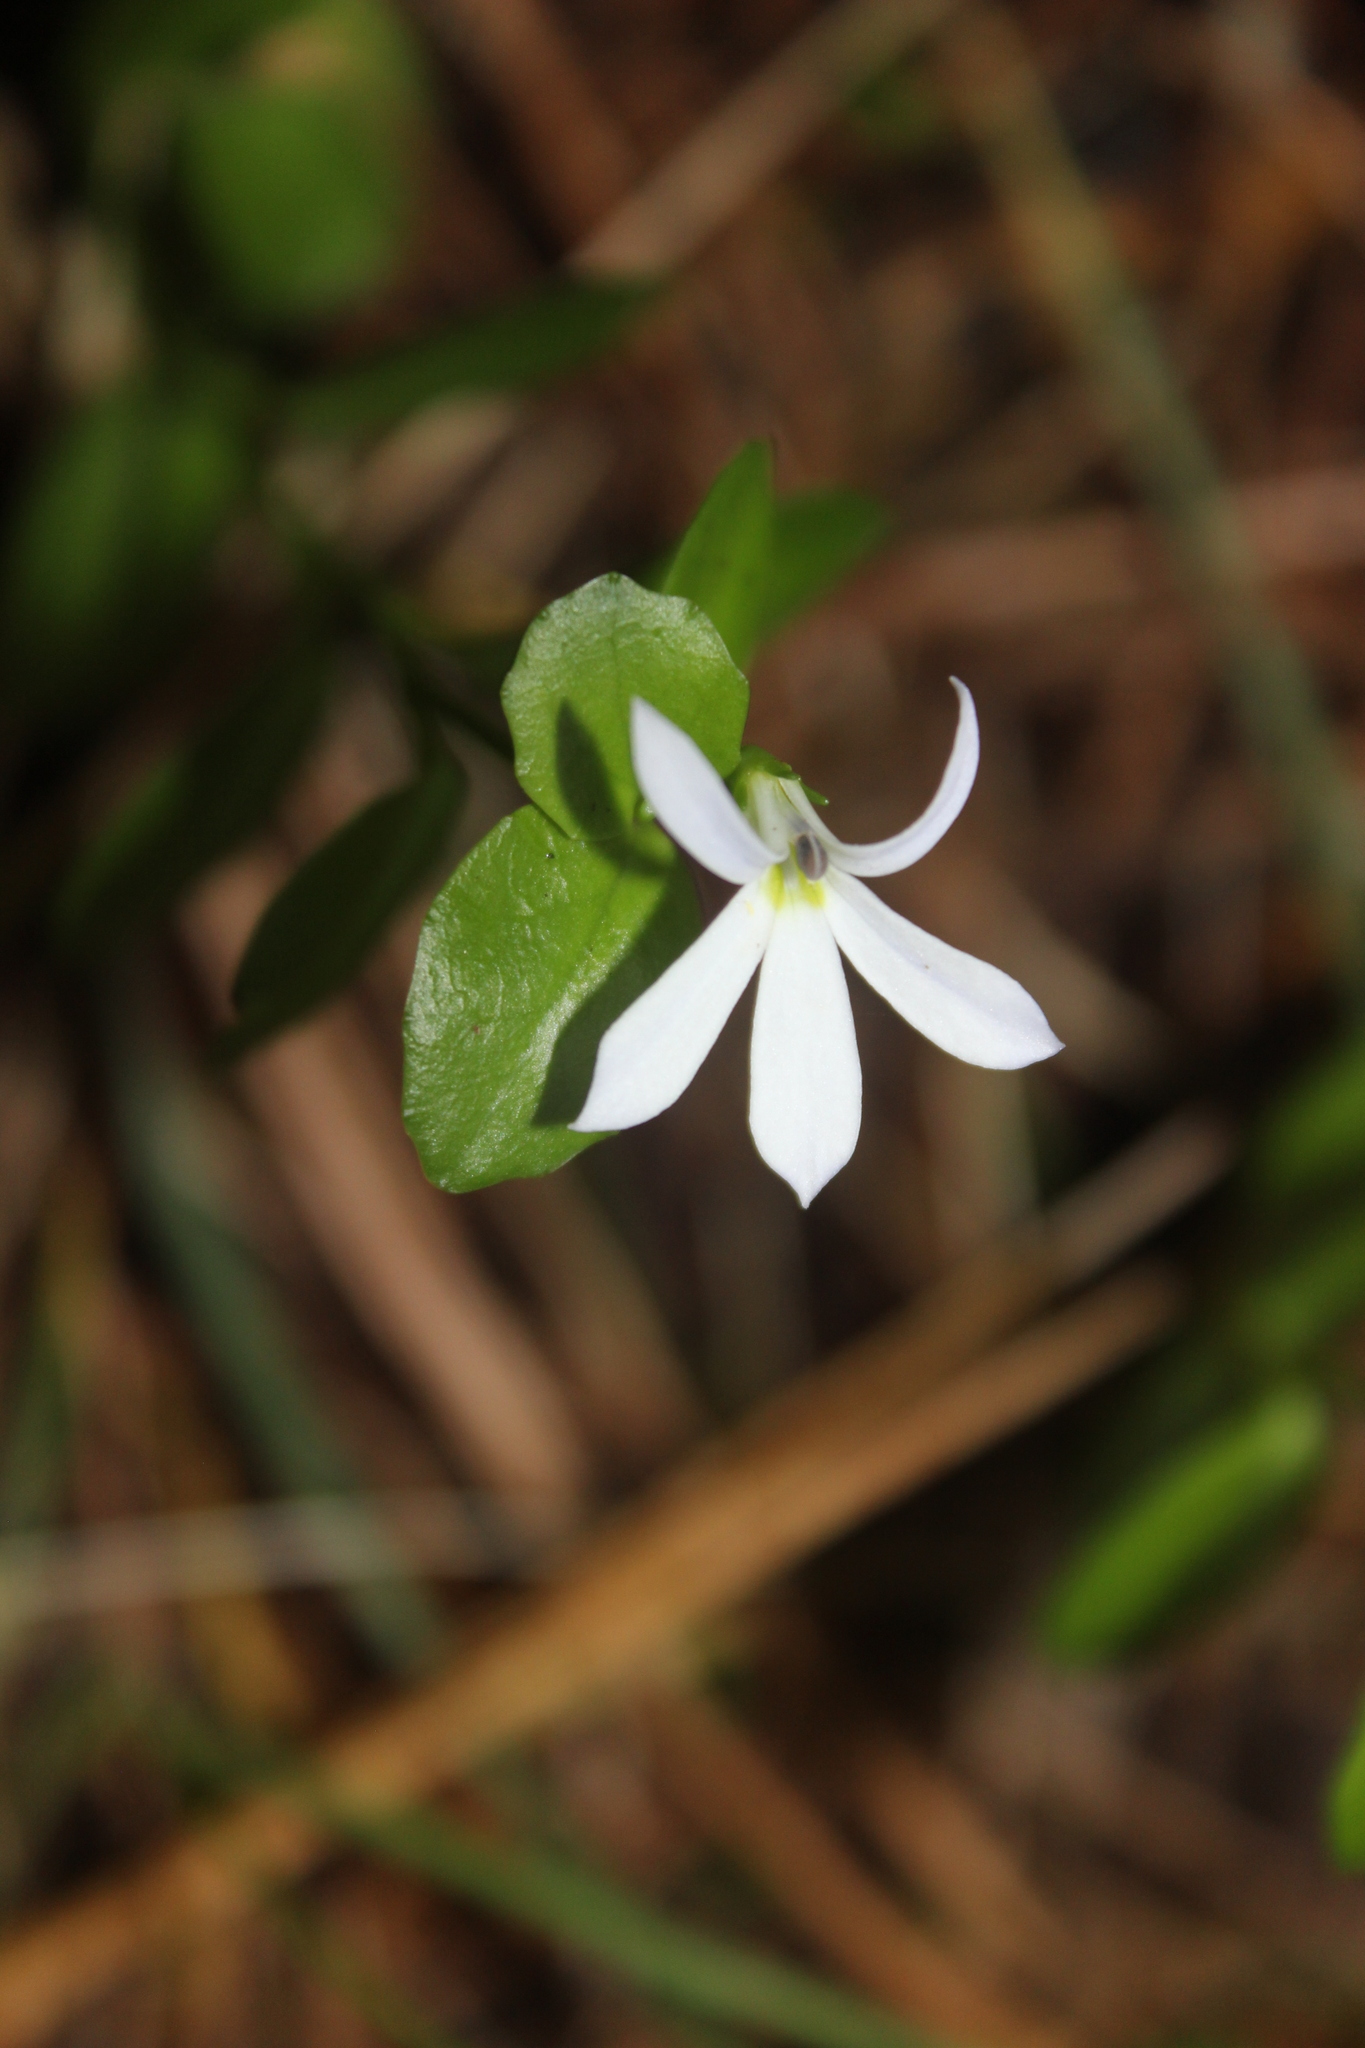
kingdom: Plantae
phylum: Tracheophyta
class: Magnoliopsida
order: Asterales
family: Campanulaceae
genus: Lobelia
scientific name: Lobelia arenaria
